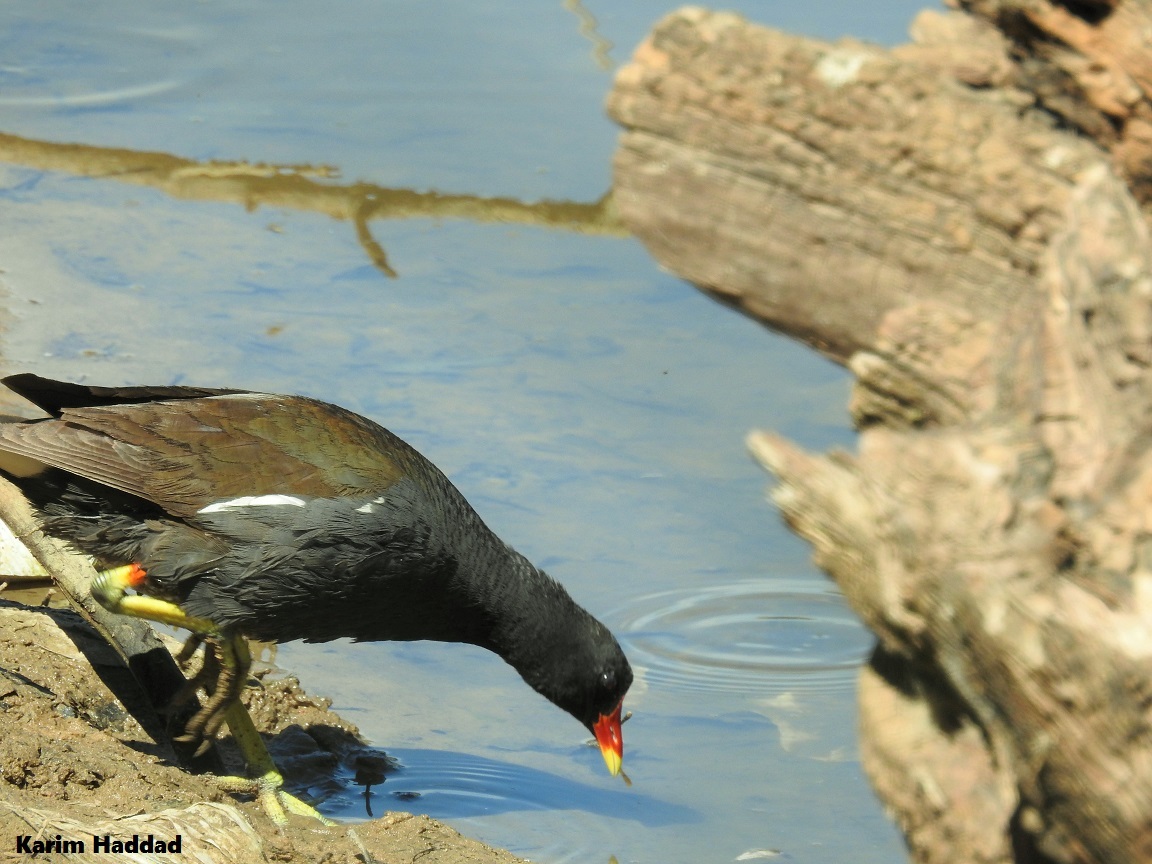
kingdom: Animalia
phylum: Chordata
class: Aves
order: Gruiformes
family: Rallidae
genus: Gallinula
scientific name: Gallinula chloropus
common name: Common moorhen
